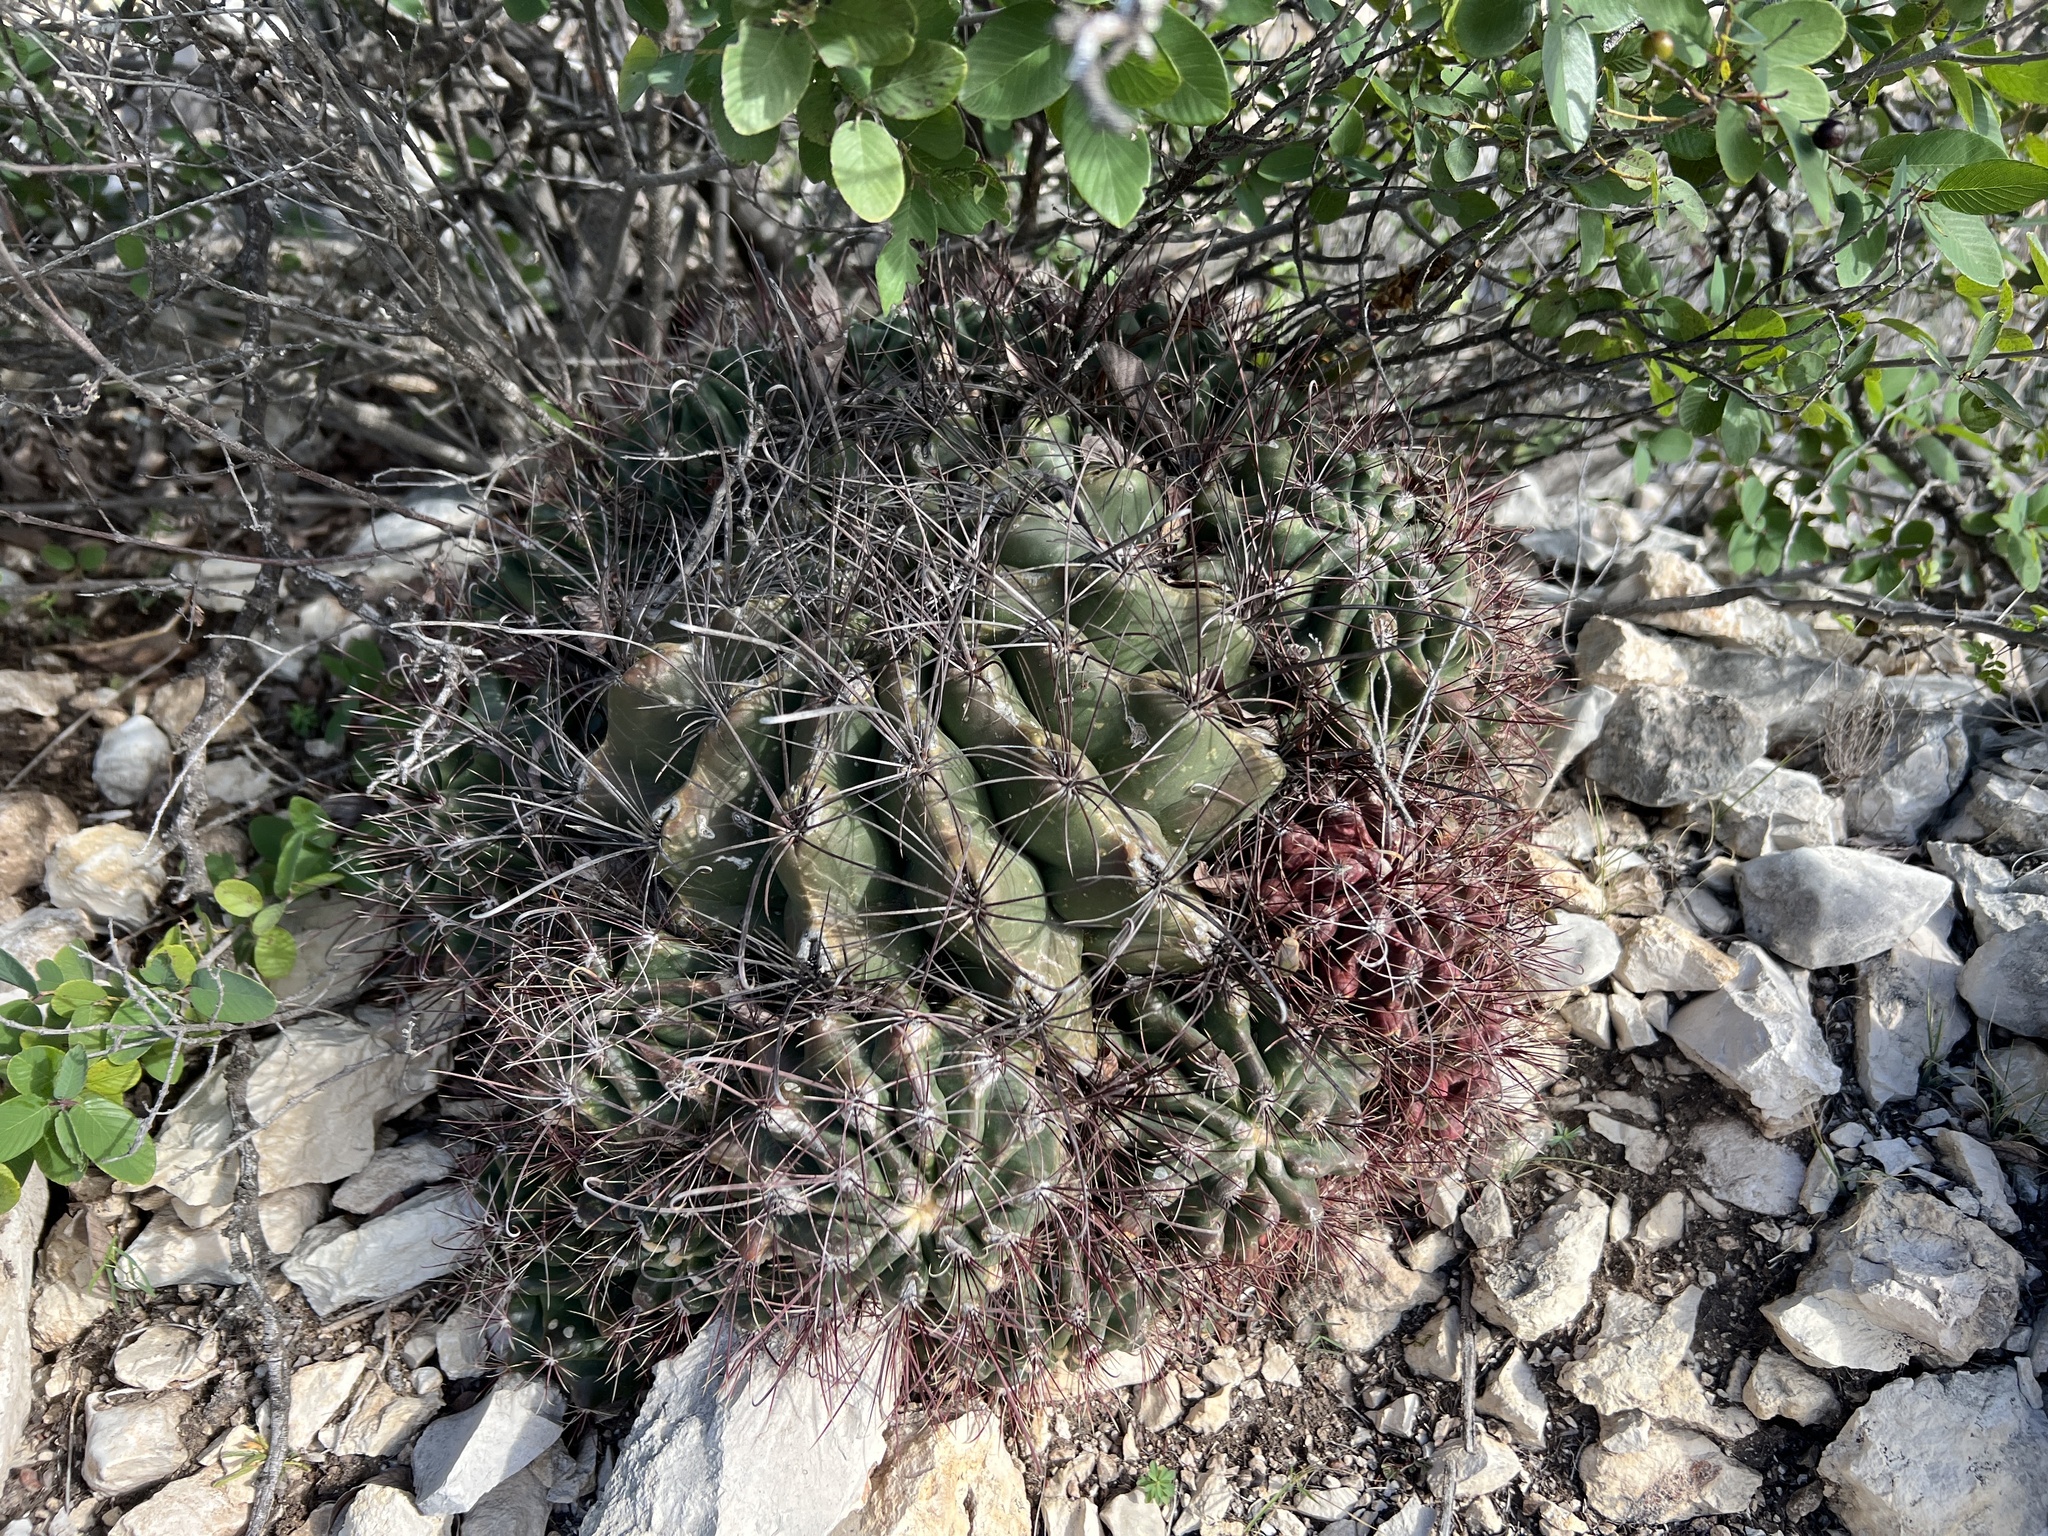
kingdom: Plantae
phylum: Tracheophyta
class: Magnoliopsida
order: Caryophyllales
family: Cactaceae
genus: Bisnaga
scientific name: Bisnaga hamatacantha
